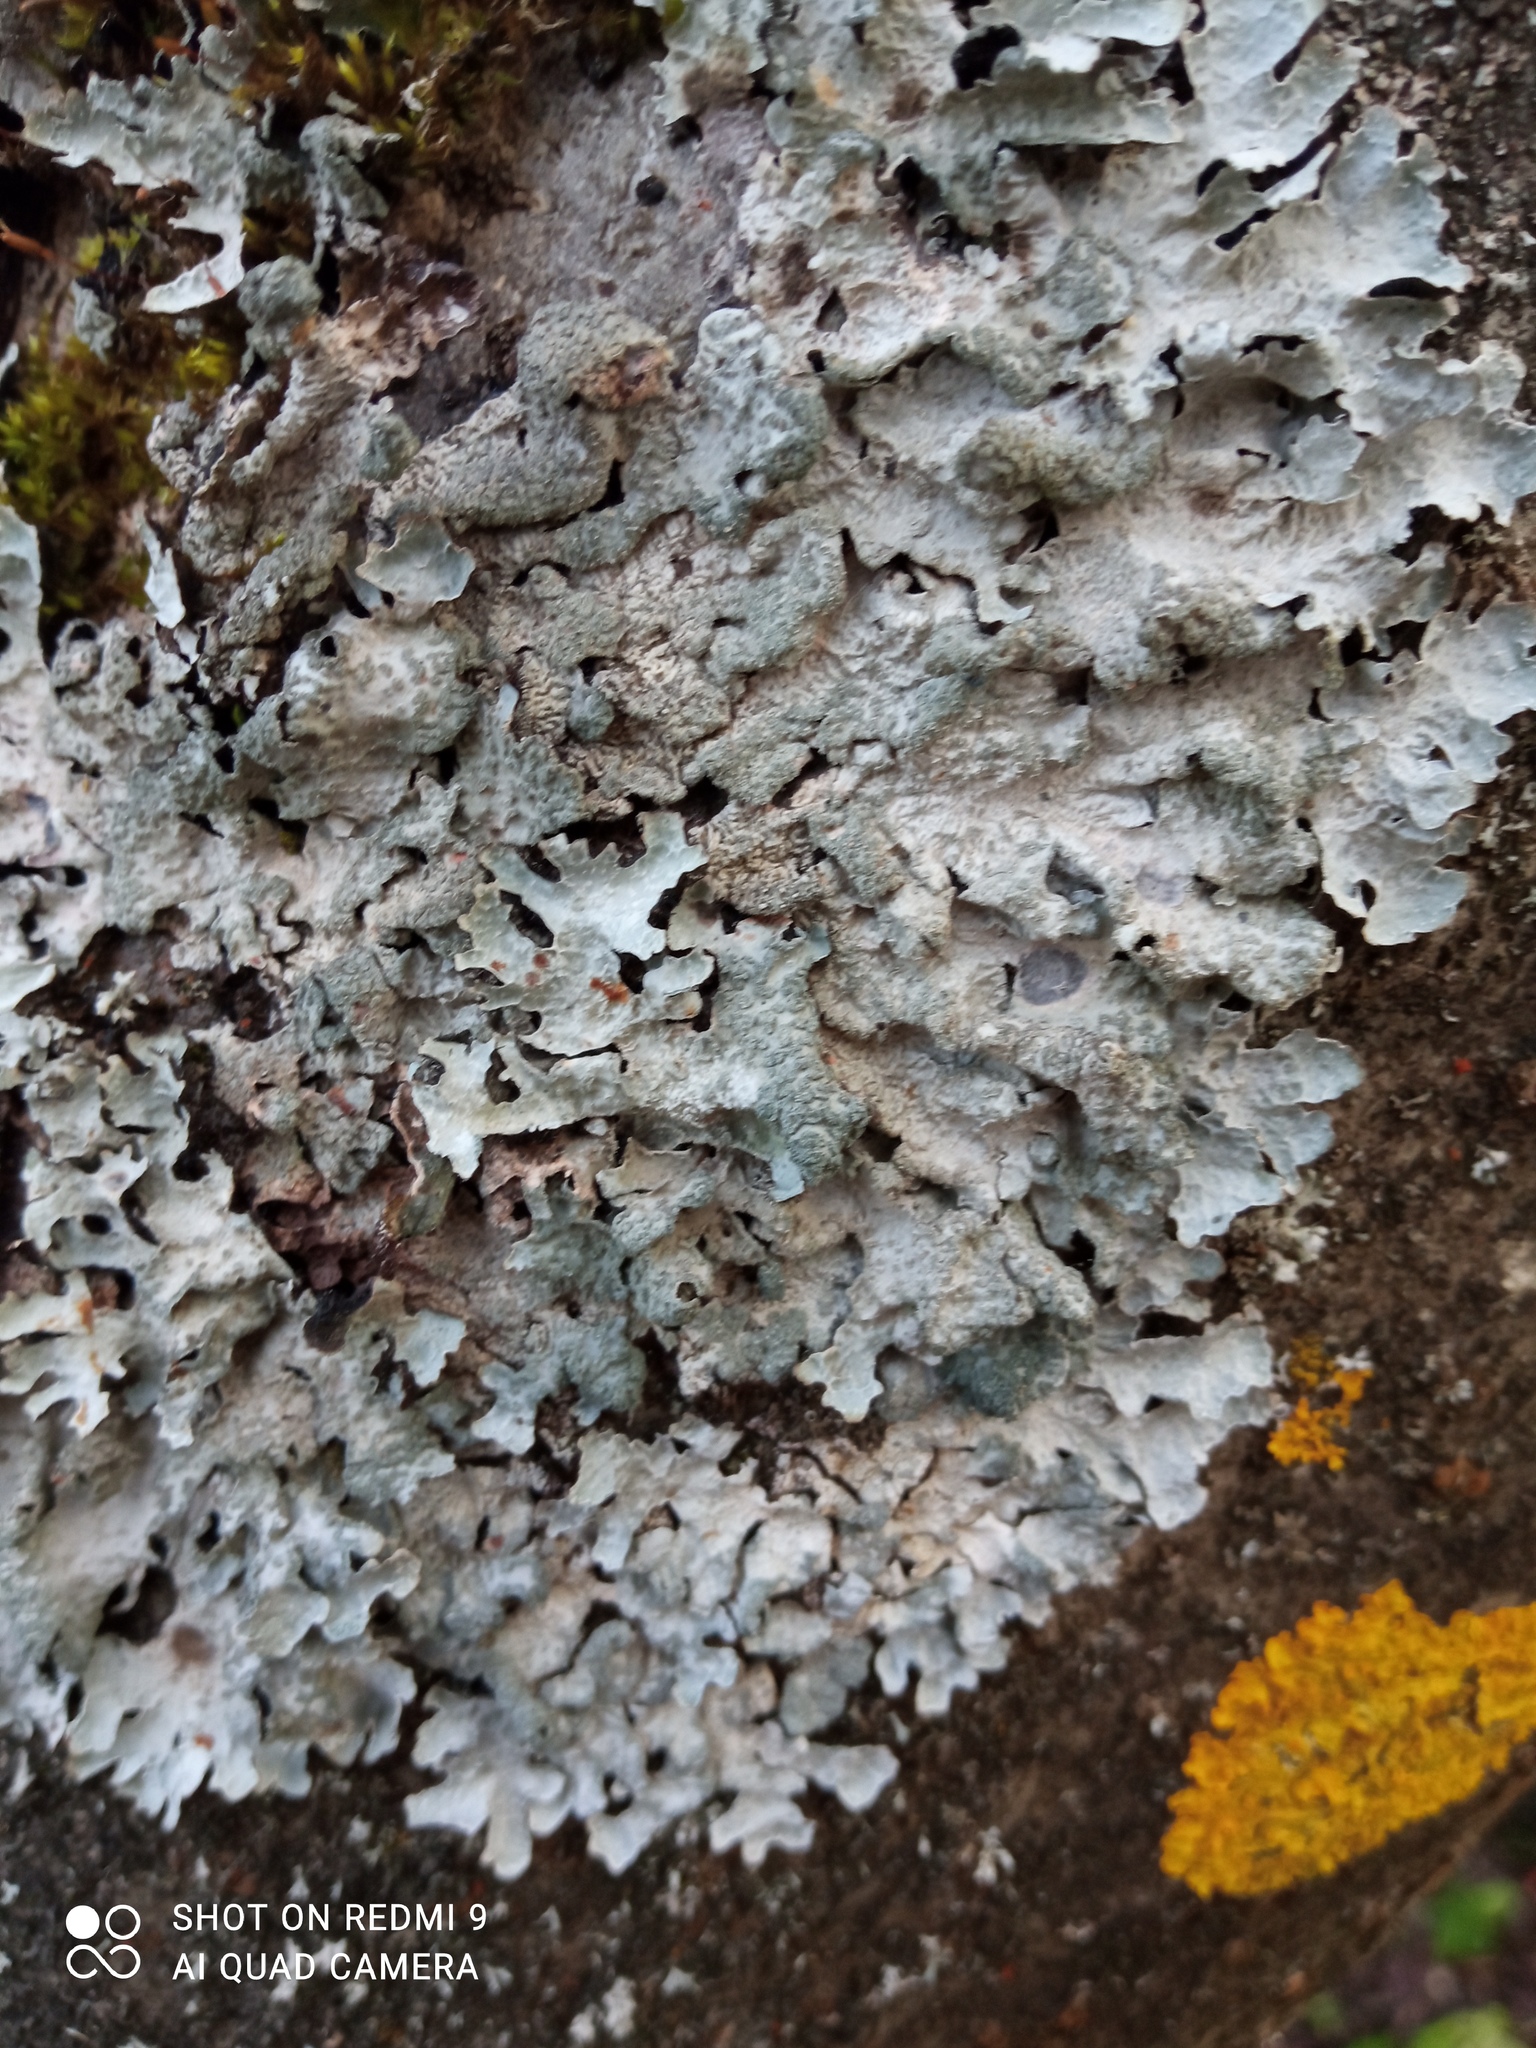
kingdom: Fungi
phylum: Ascomycota
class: Lecanoromycetes
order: Lecanorales
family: Parmeliaceae
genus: Parmelia
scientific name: Parmelia sulcata
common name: Netted shield lichen
